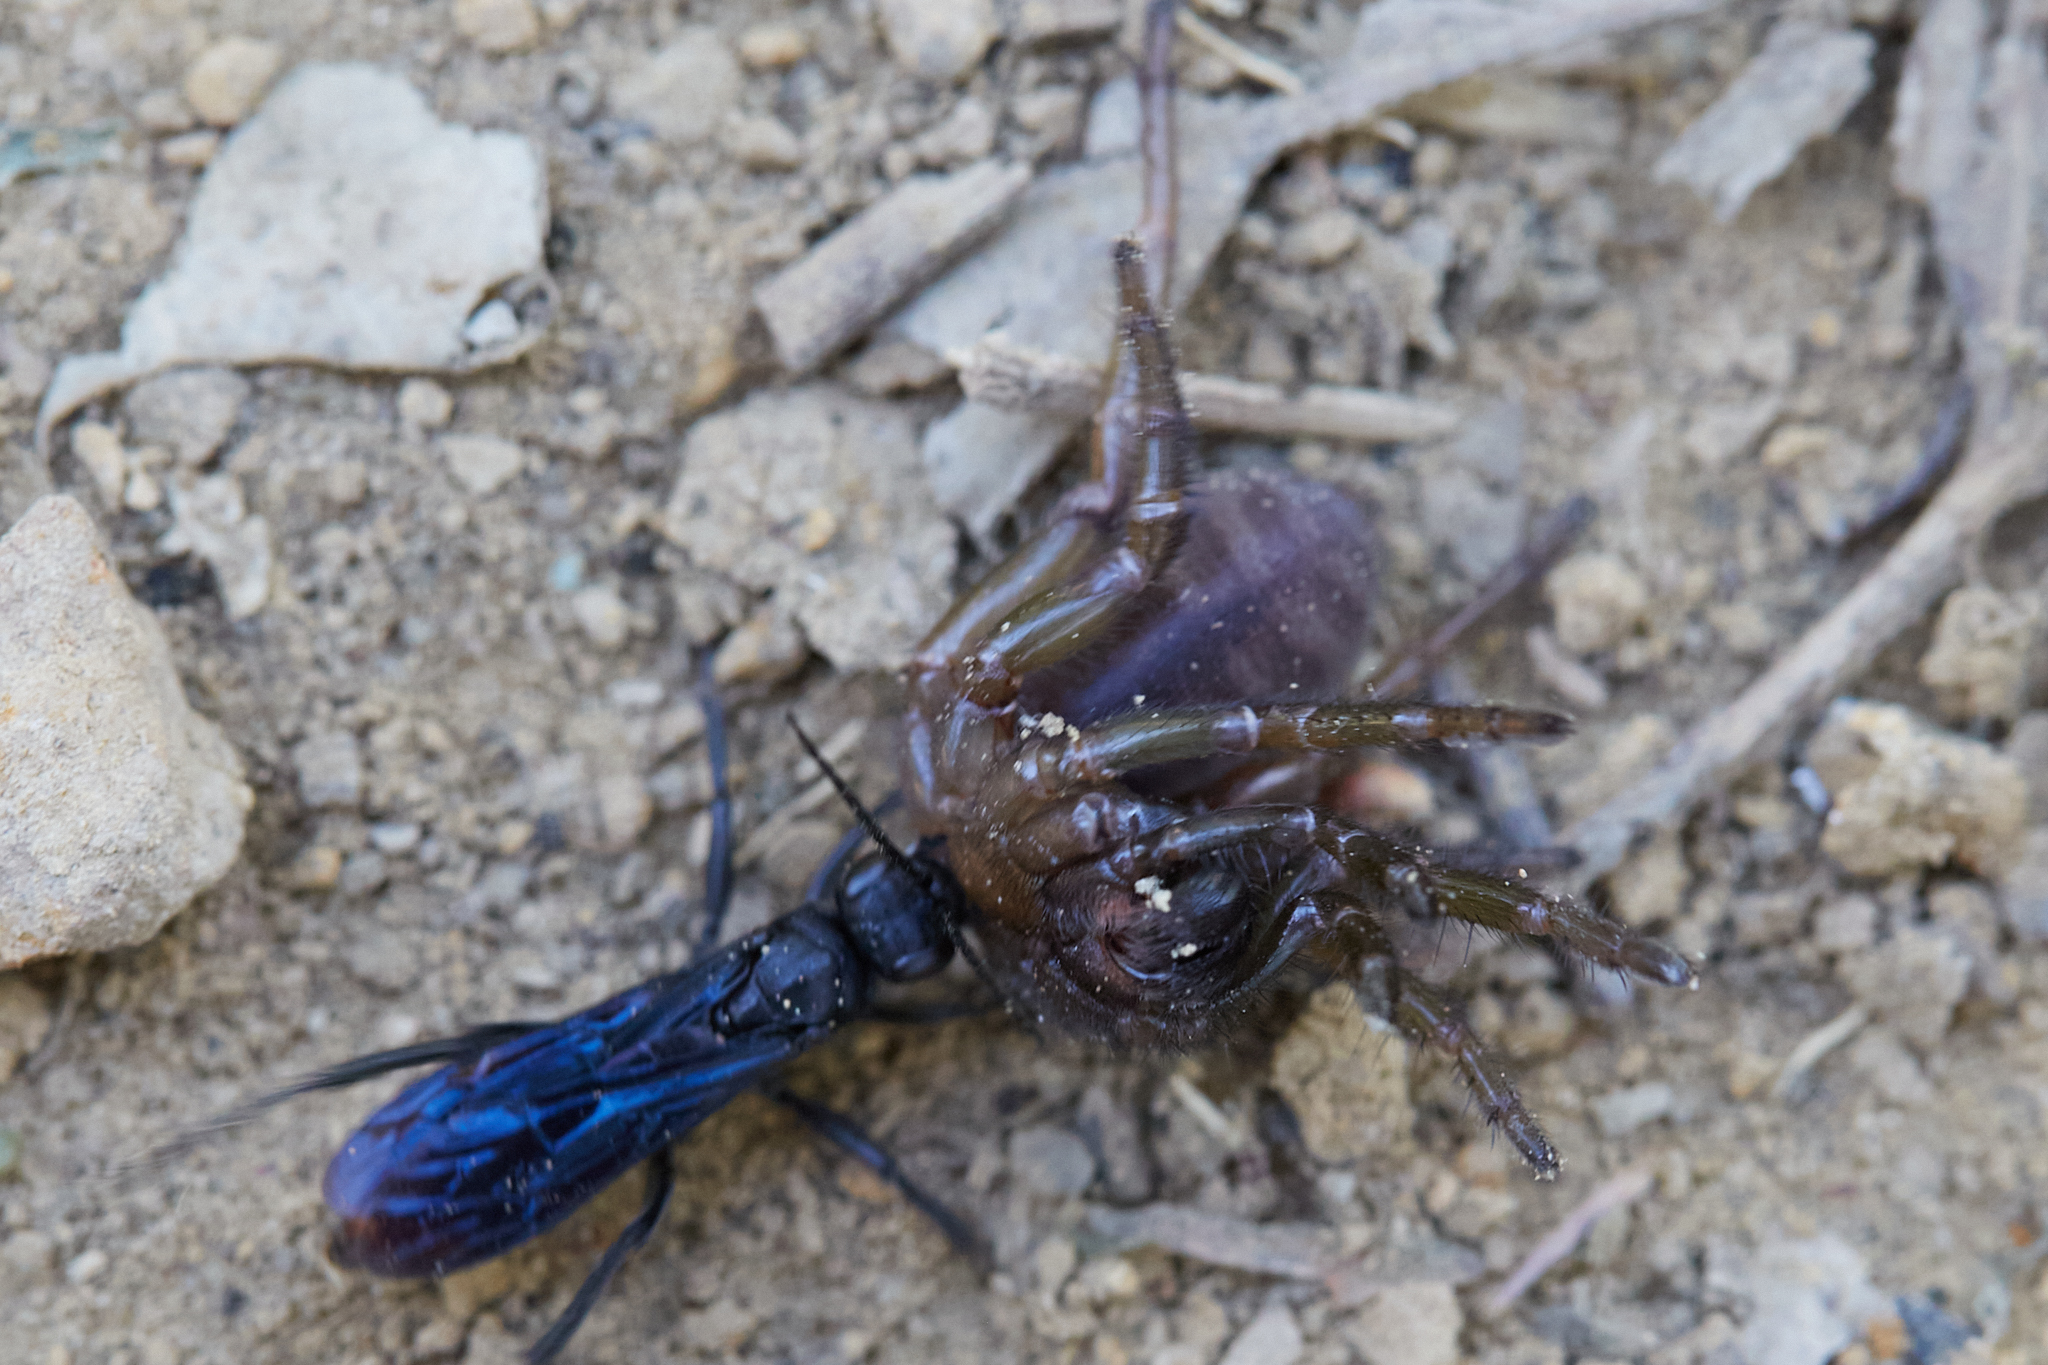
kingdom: Animalia
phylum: Arthropoda
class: Arachnida
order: Araneae
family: Euctenizidae
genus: Promyrmekiaphila
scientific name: Promyrmekiaphila clathrata
